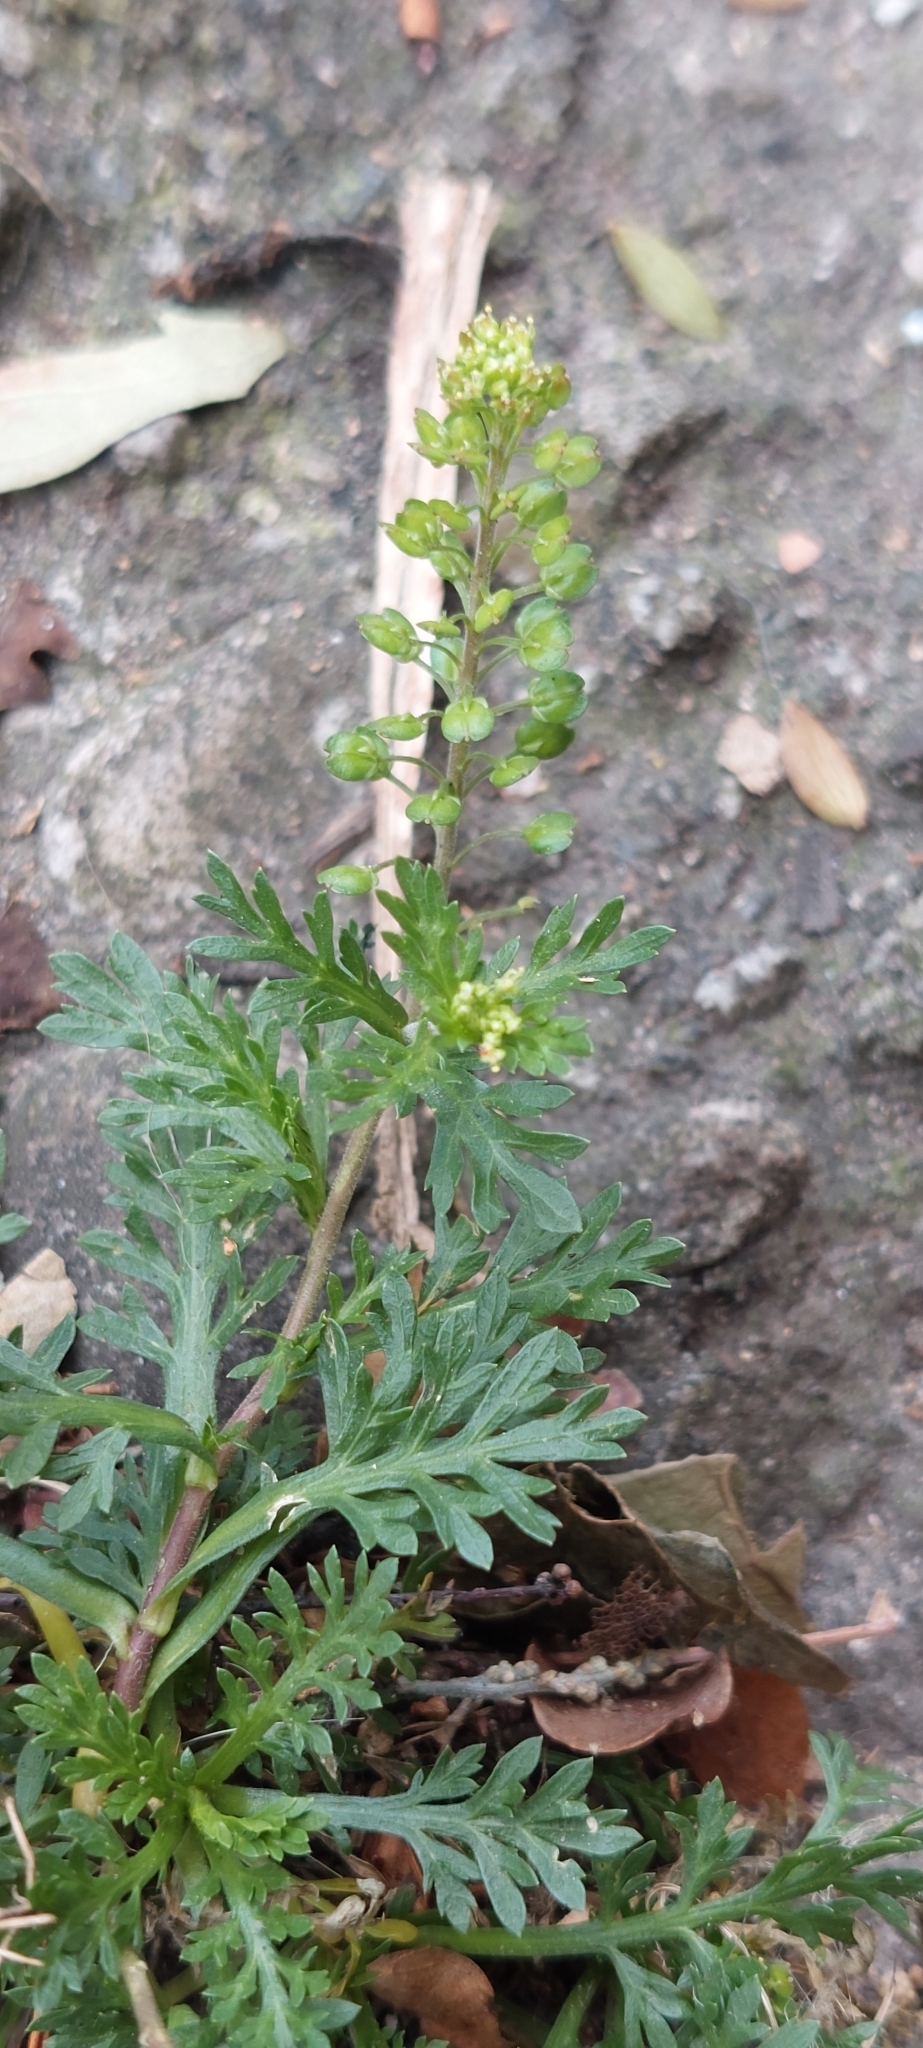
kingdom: Plantae
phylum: Tracheophyta
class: Magnoliopsida
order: Brassicales
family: Brassicaceae
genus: Lepidium
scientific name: Lepidium bipinnatifidum
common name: Wayside pepperwort
